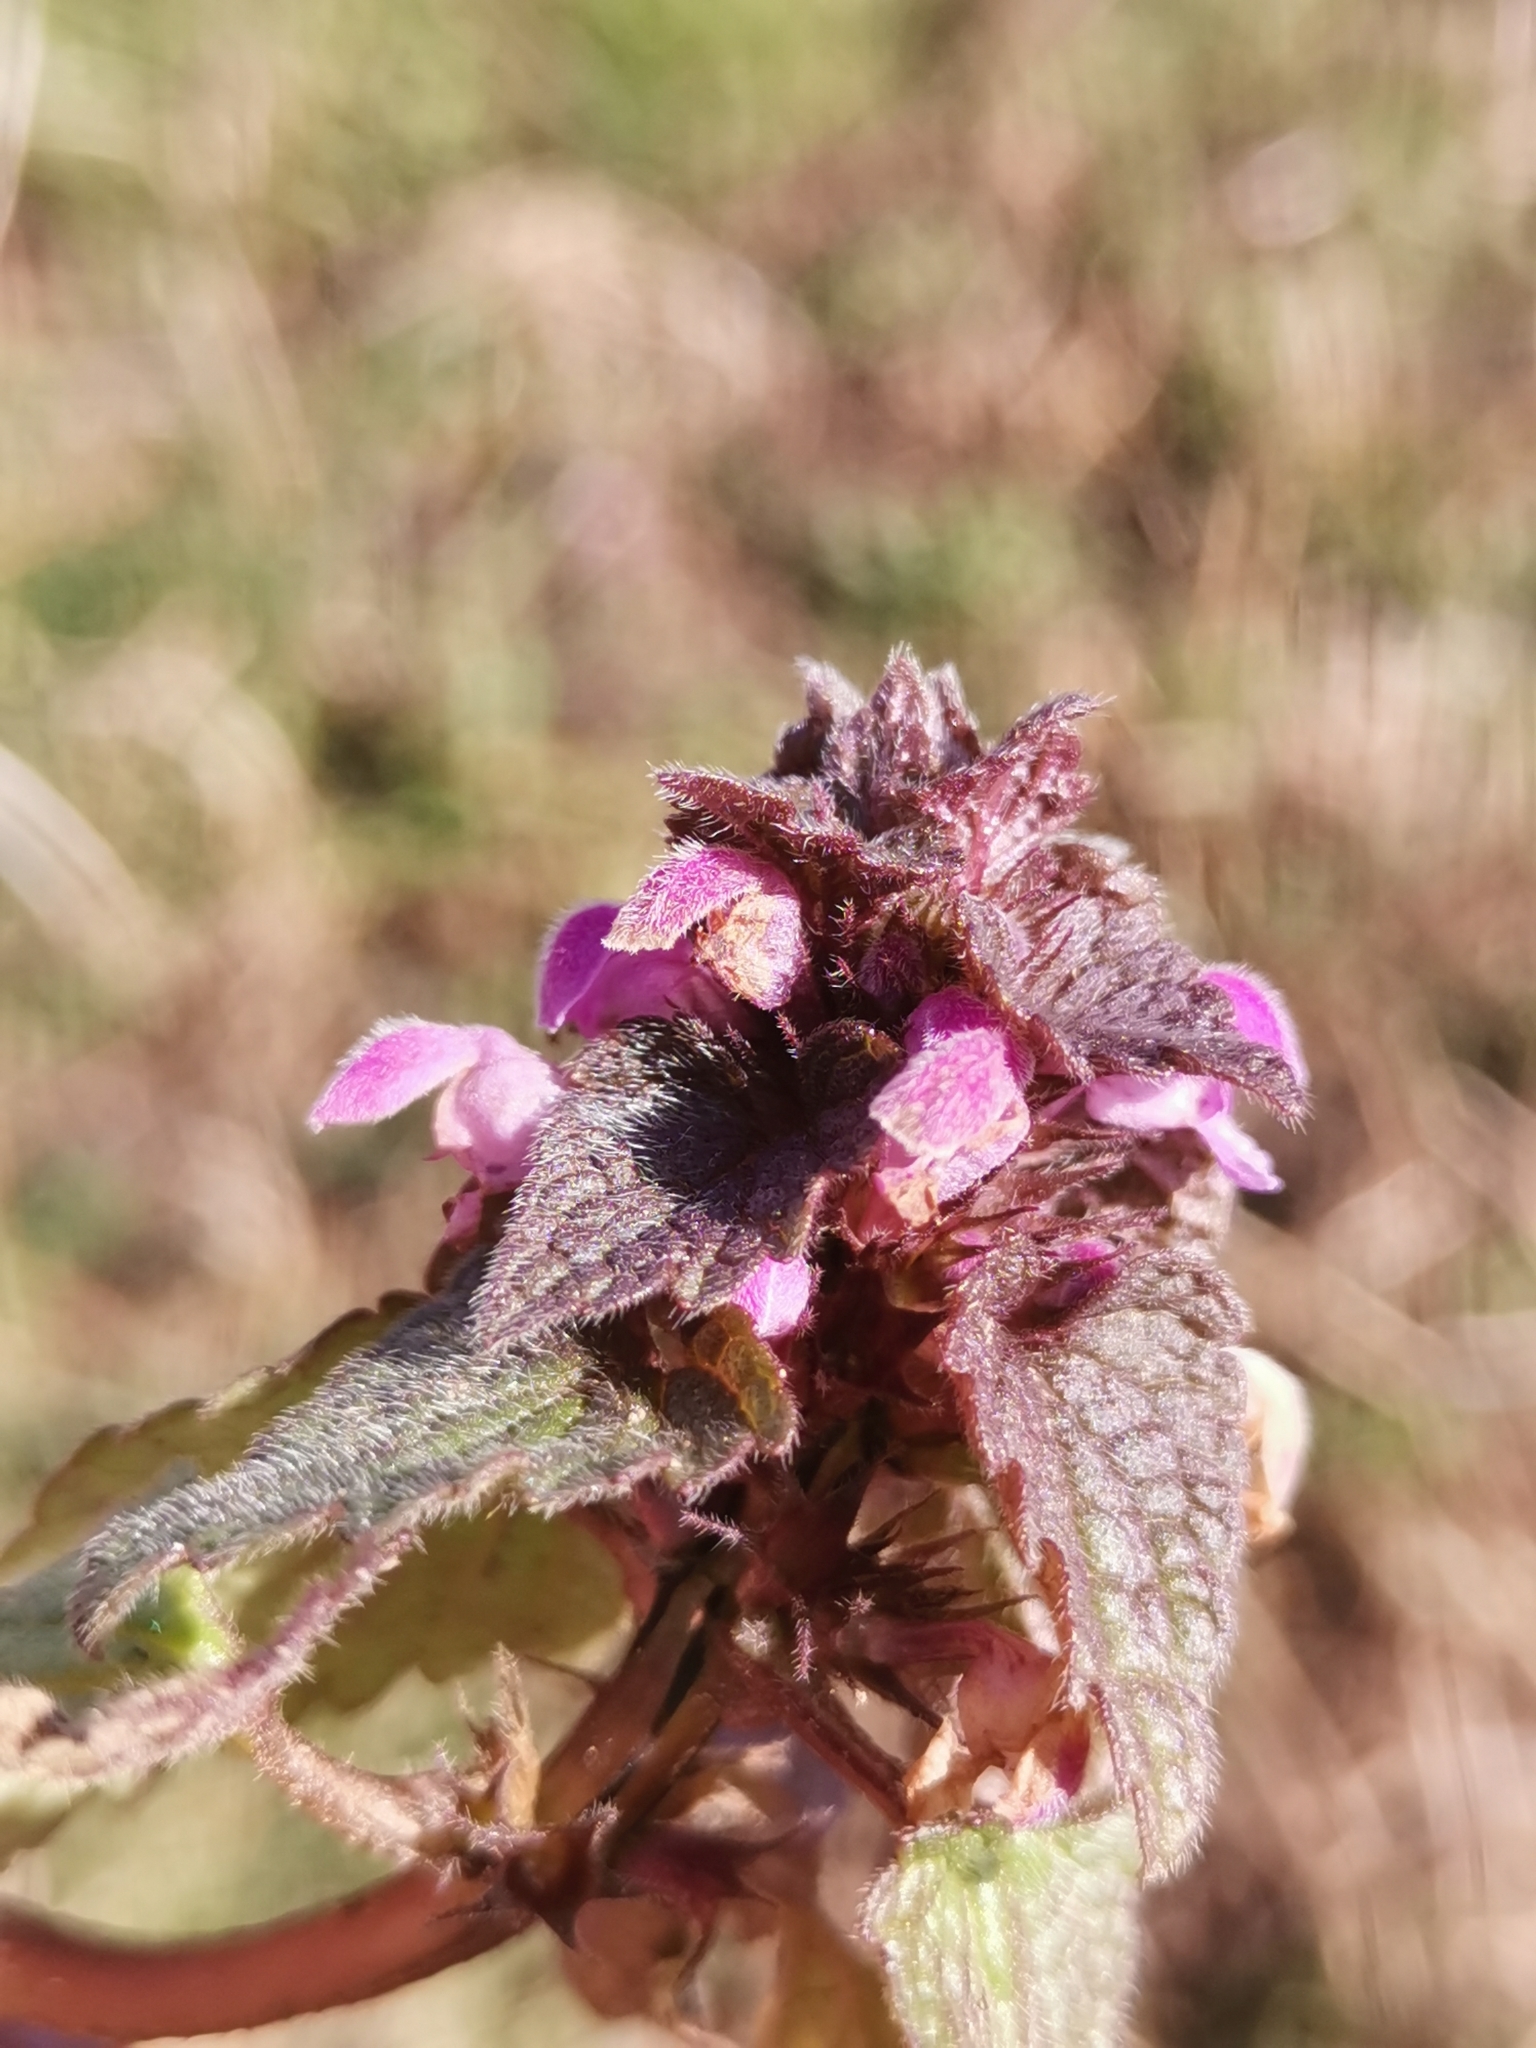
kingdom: Plantae
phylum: Tracheophyta
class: Magnoliopsida
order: Lamiales
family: Lamiaceae
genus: Lamium
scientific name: Lamium purpureum
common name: Red dead-nettle
